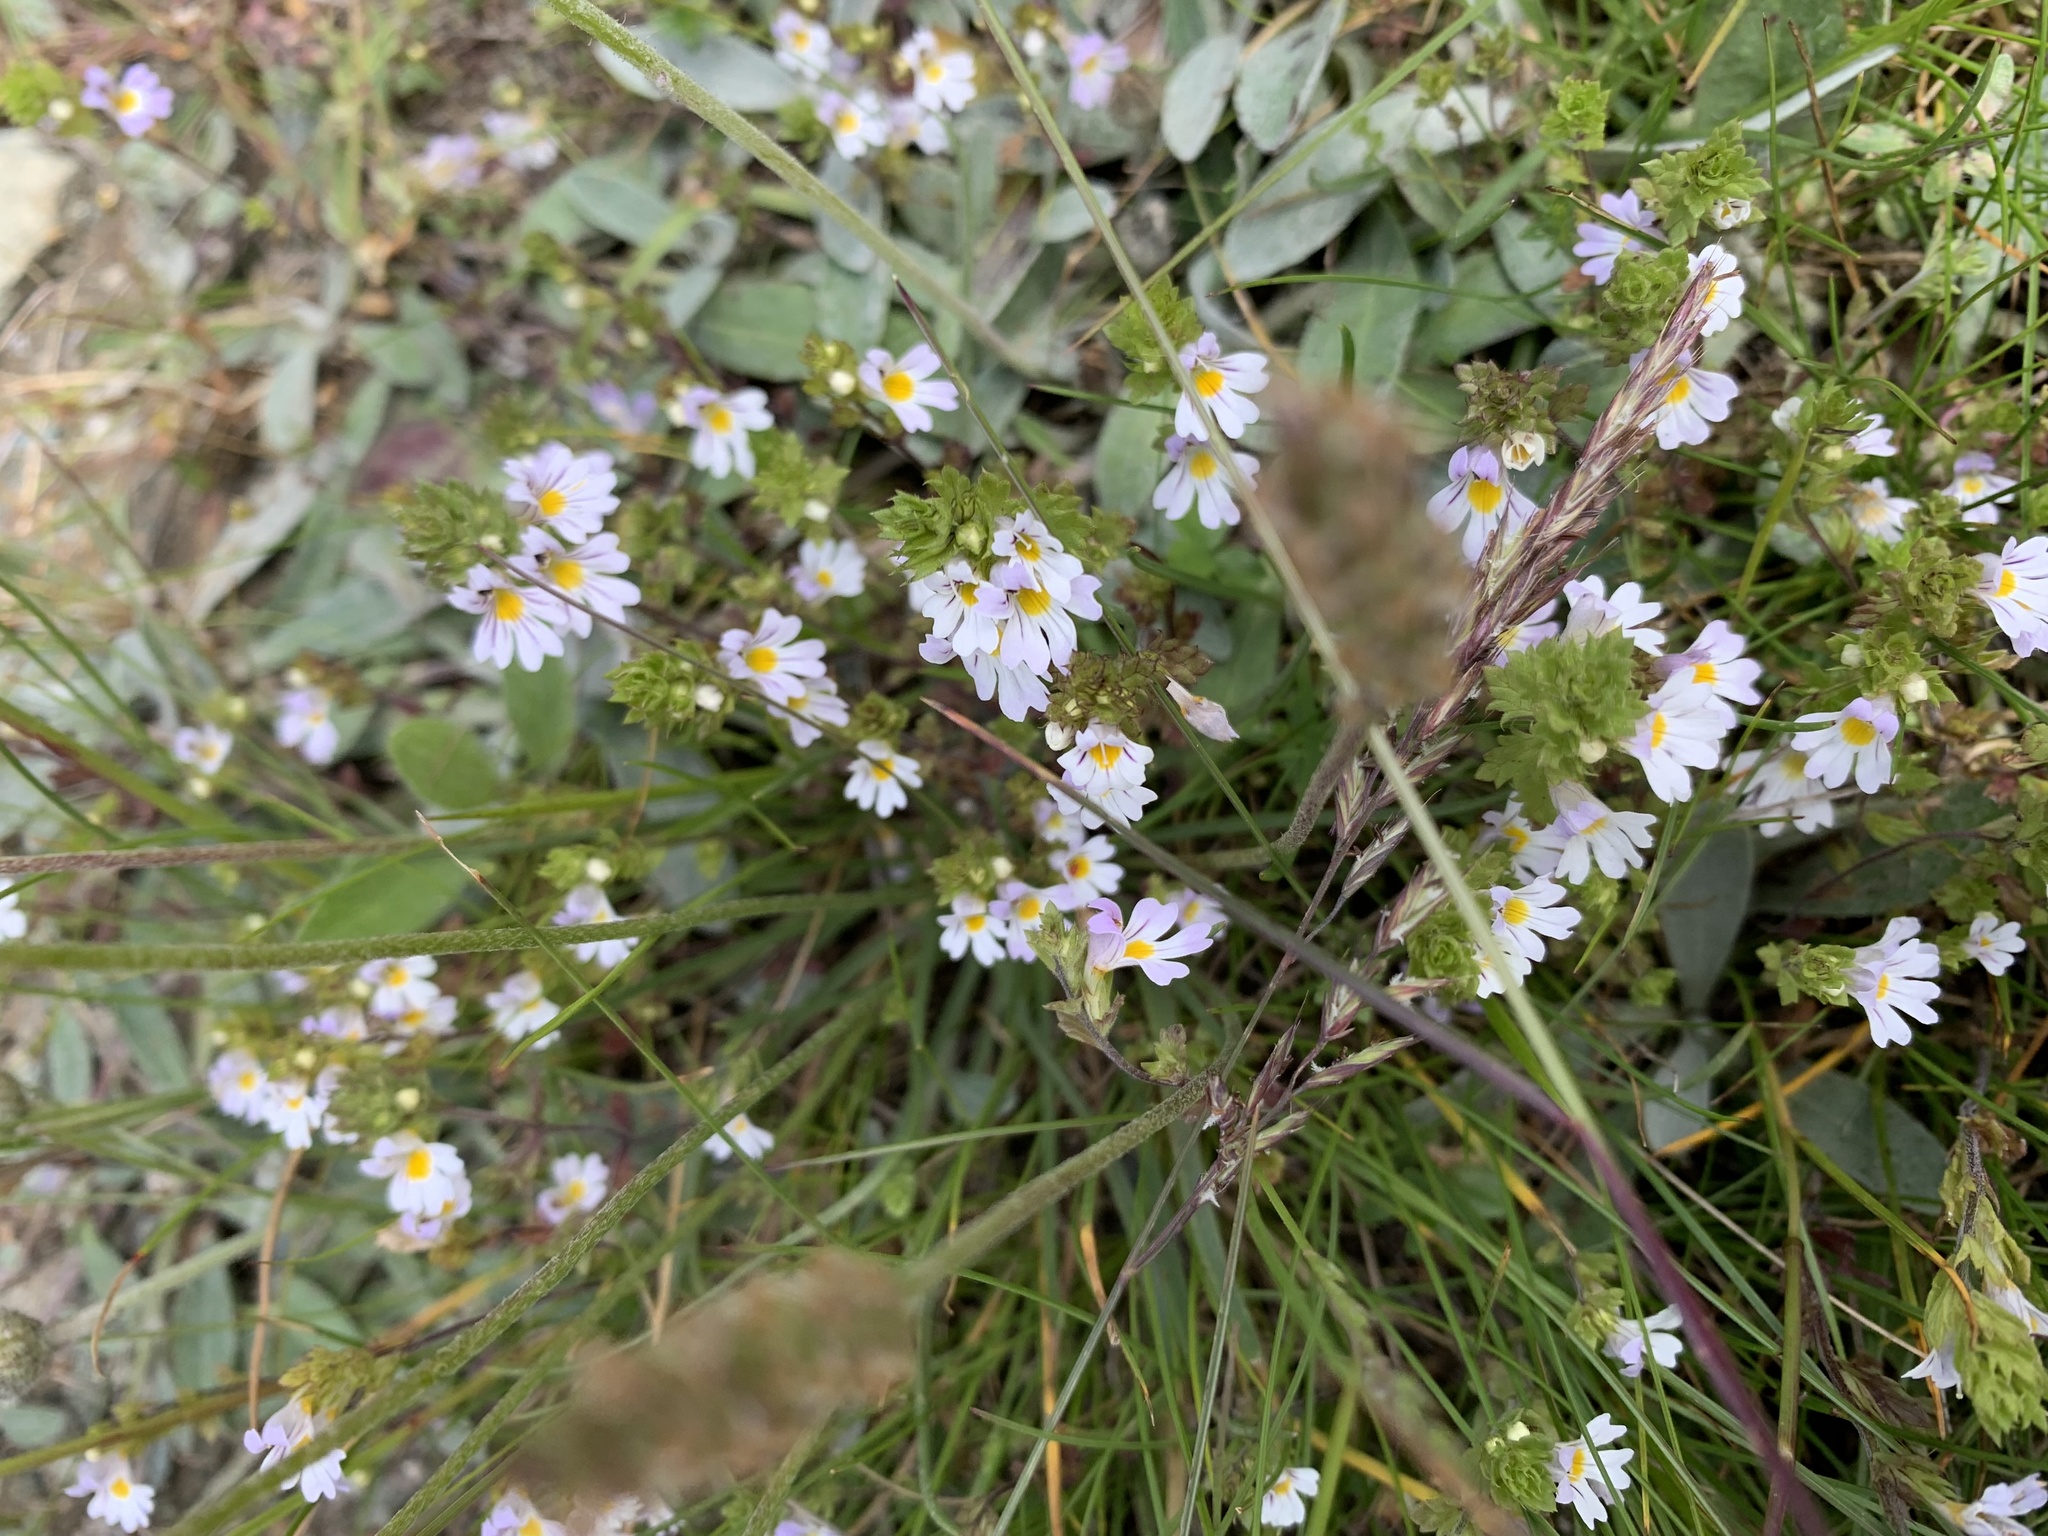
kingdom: Plantae
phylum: Tracheophyta
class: Magnoliopsida
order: Lamiales
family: Orobanchaceae
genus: Euphrasia
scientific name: Euphrasia alpina
